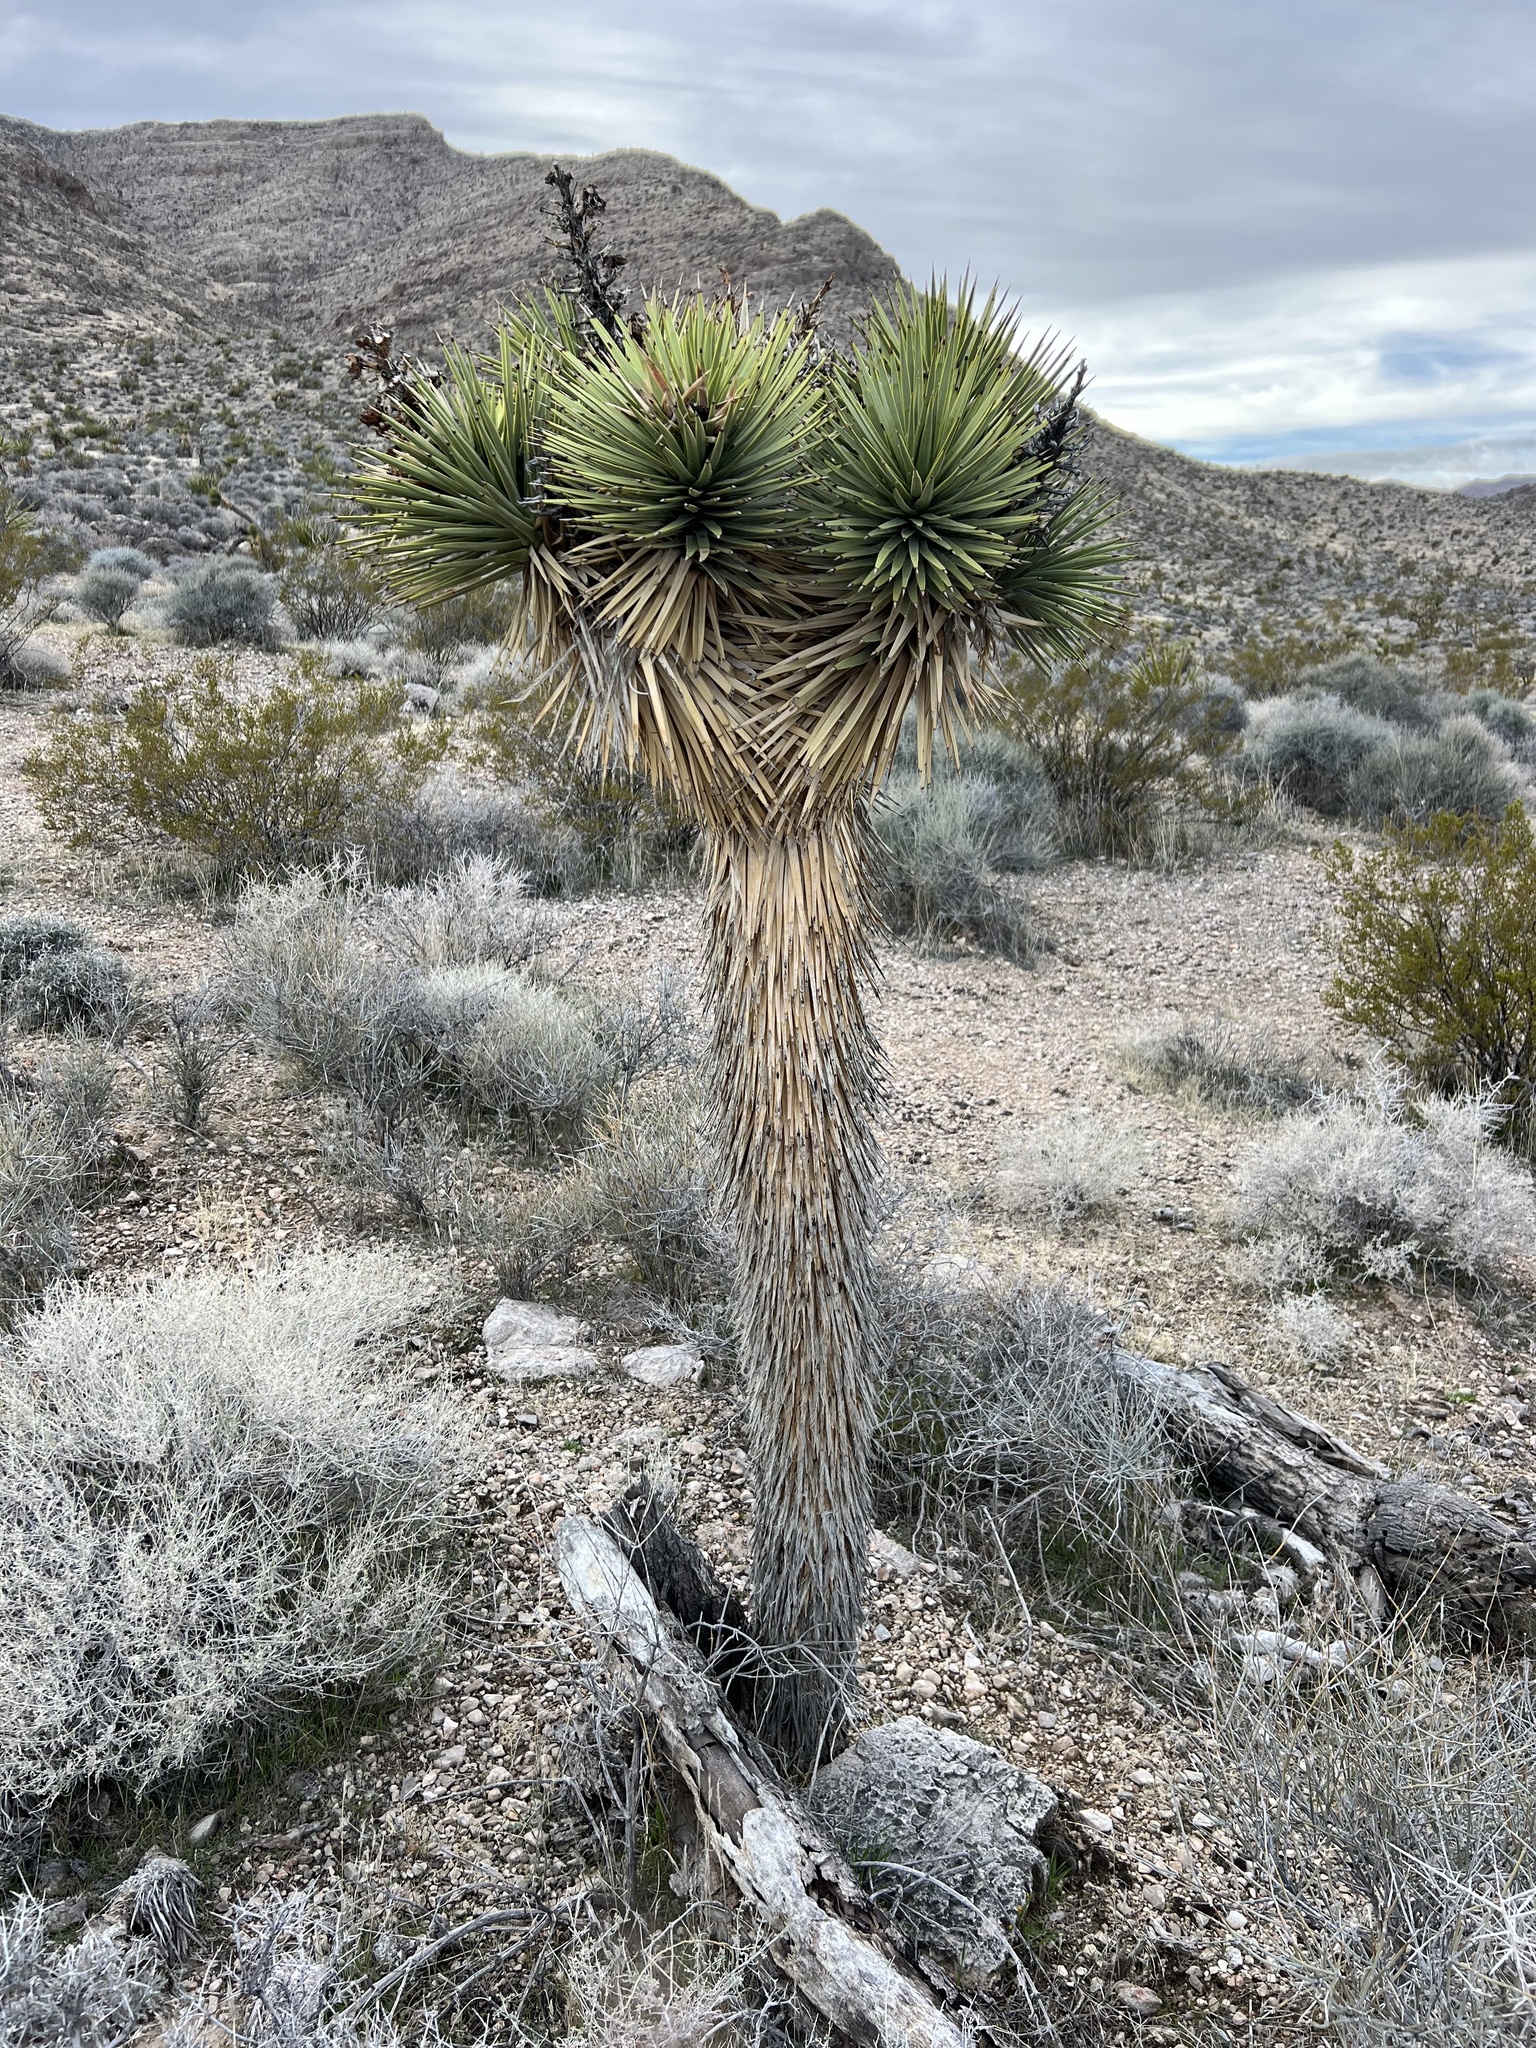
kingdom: Plantae
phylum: Tracheophyta
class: Liliopsida
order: Asparagales
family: Asparagaceae
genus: Yucca
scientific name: Yucca brevifolia
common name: Joshua tree
